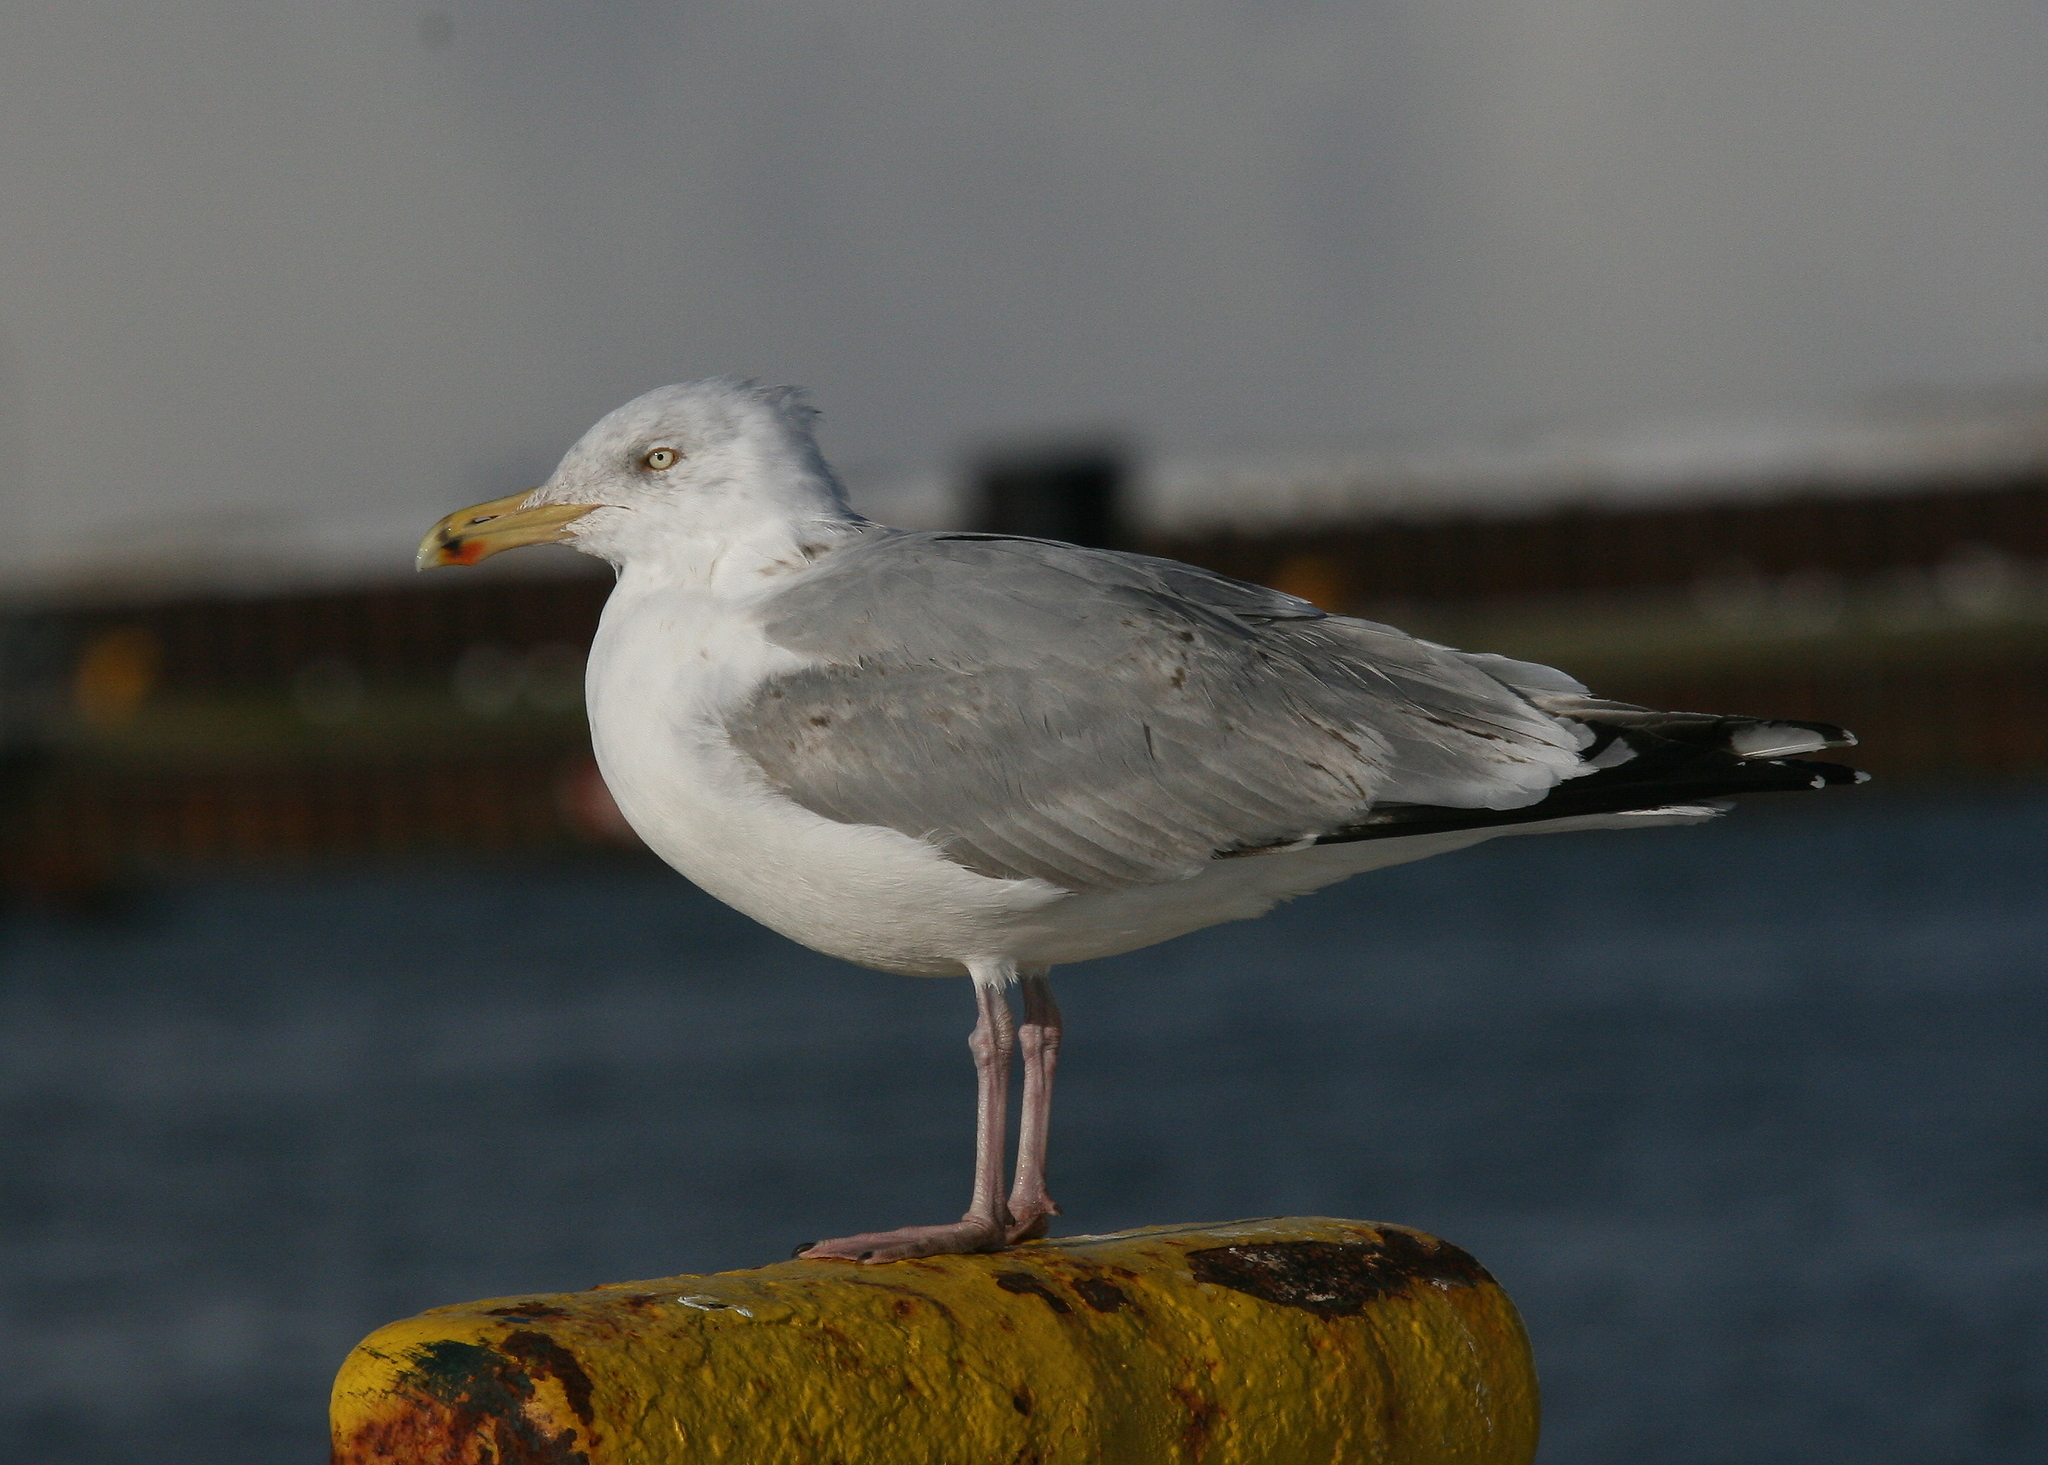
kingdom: Animalia
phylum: Chordata
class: Aves
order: Charadriiformes
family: Laridae
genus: Larus
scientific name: Larus argentatus
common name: Herring gull
